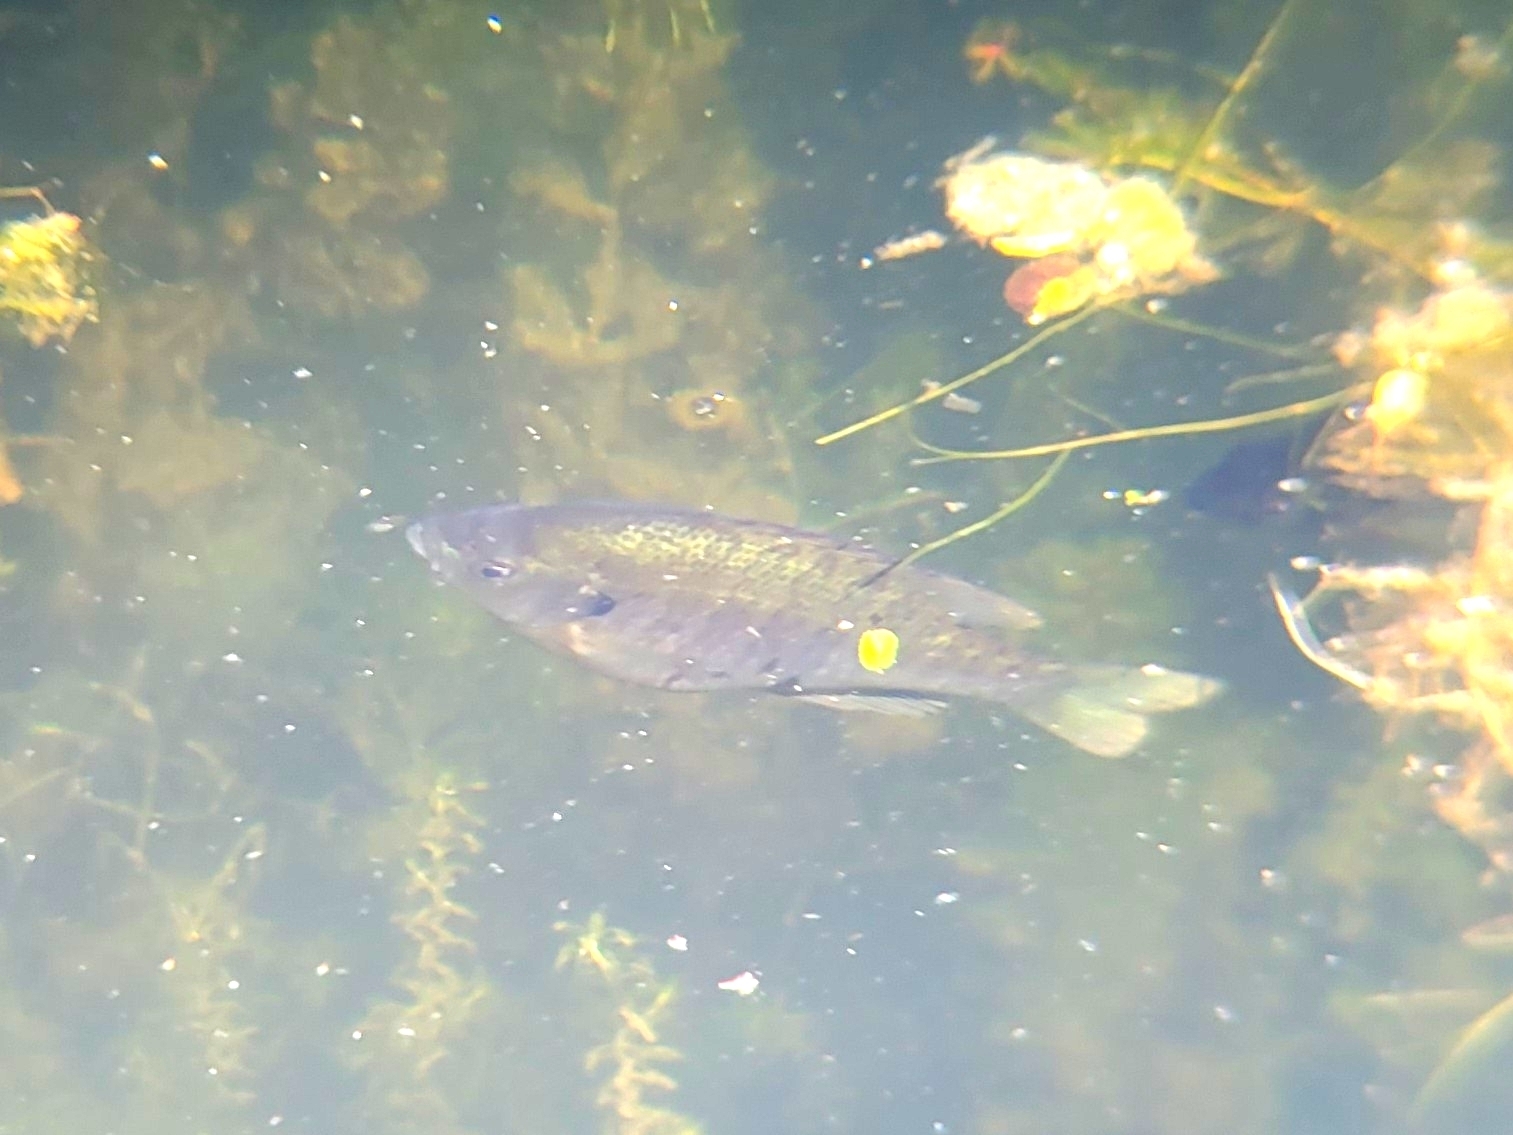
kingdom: Animalia
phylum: Chordata
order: Perciformes
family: Centrarchidae
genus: Lepomis
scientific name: Lepomis macrochirus
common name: Bluegill
